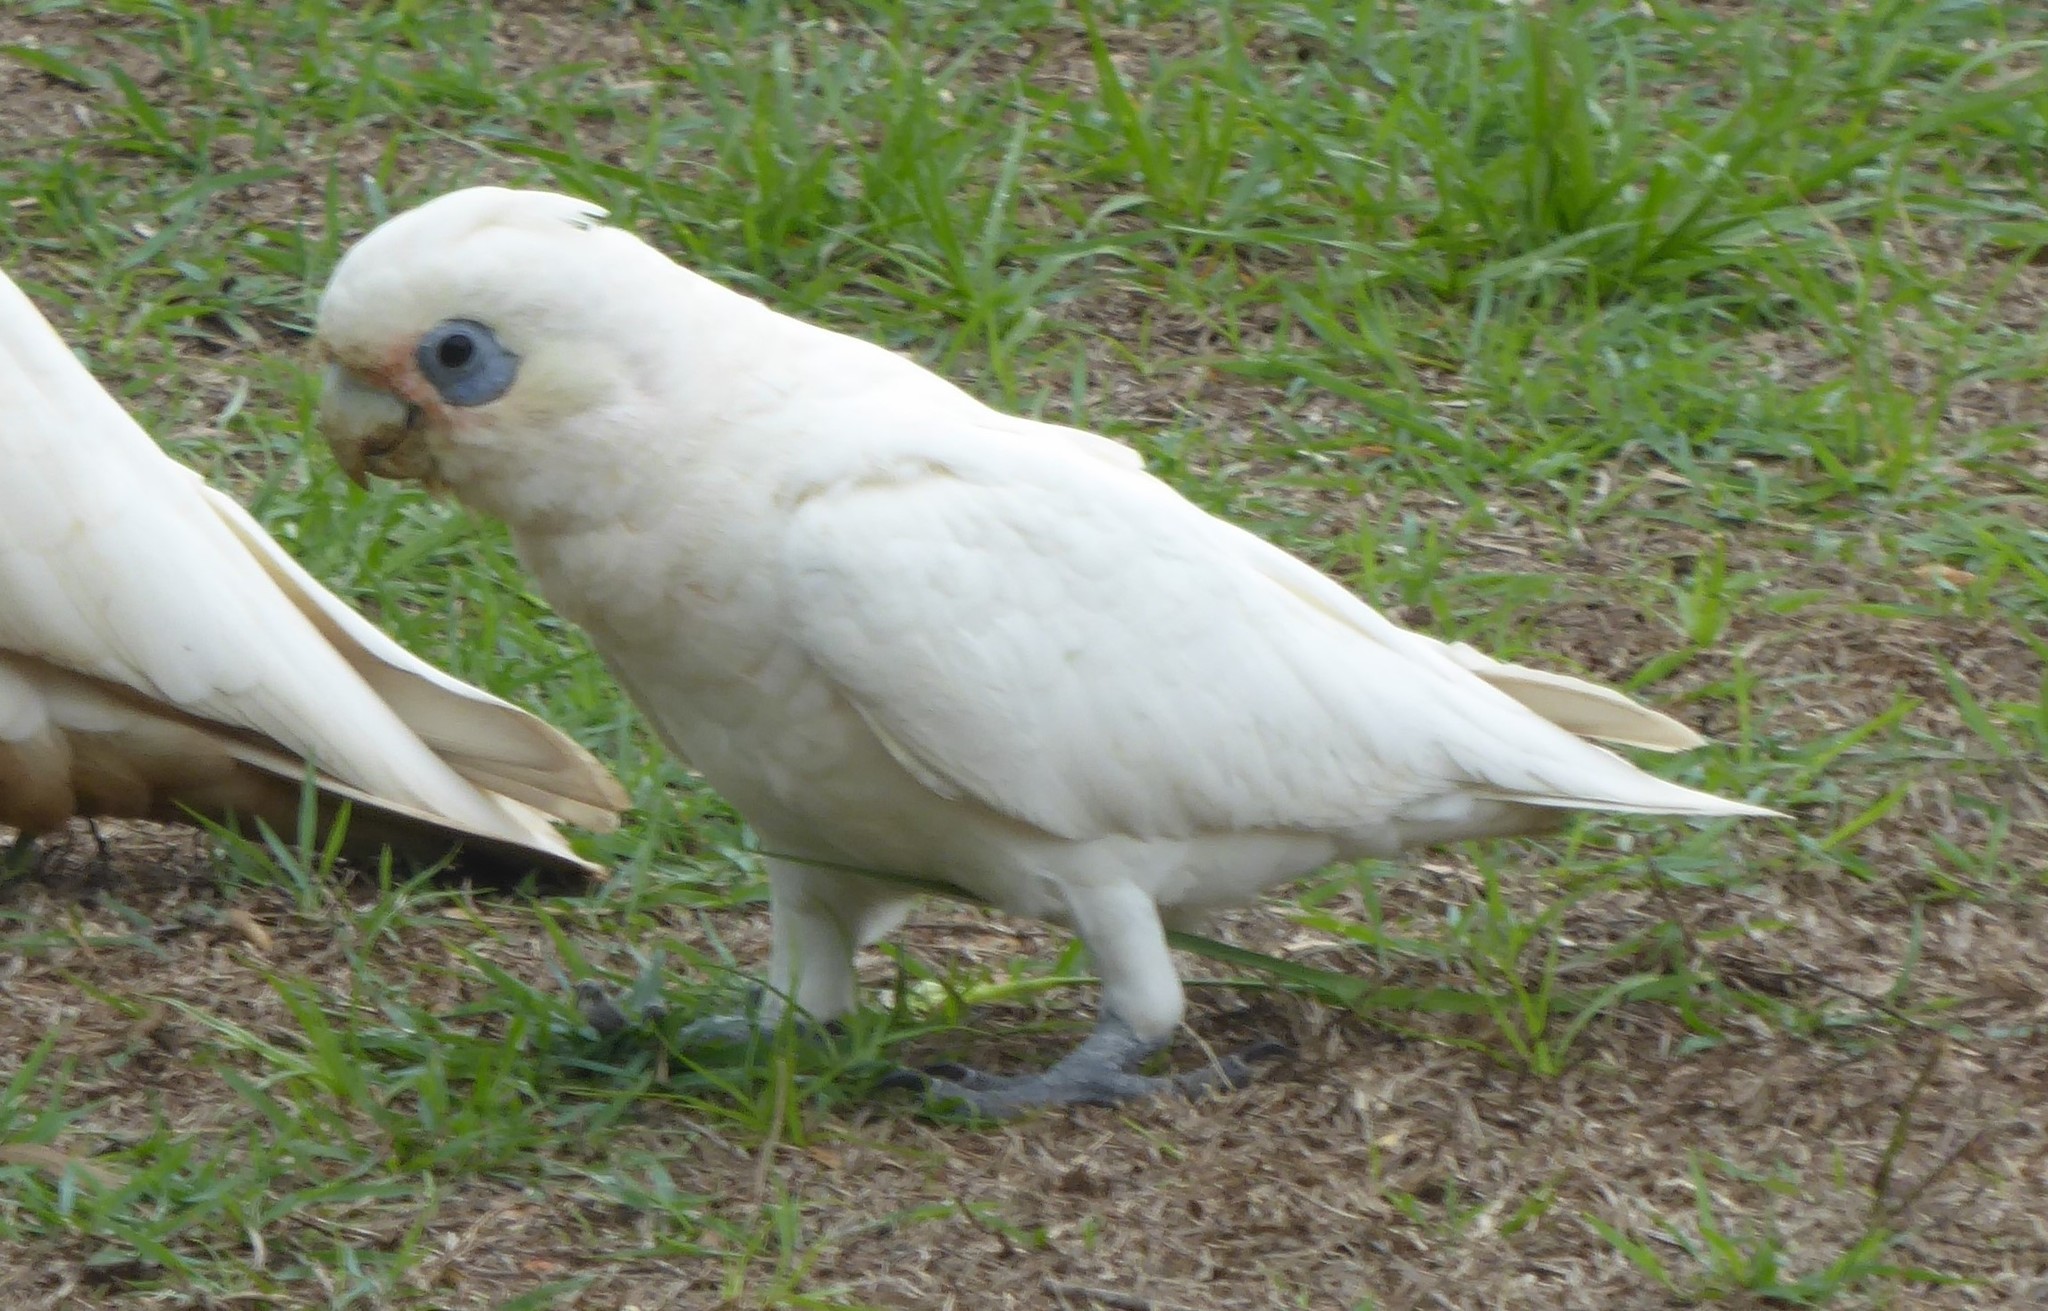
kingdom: Animalia
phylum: Chordata
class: Aves
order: Psittaciformes
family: Psittacidae
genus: Cacatua
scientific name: Cacatua sanguinea
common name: Little corella
